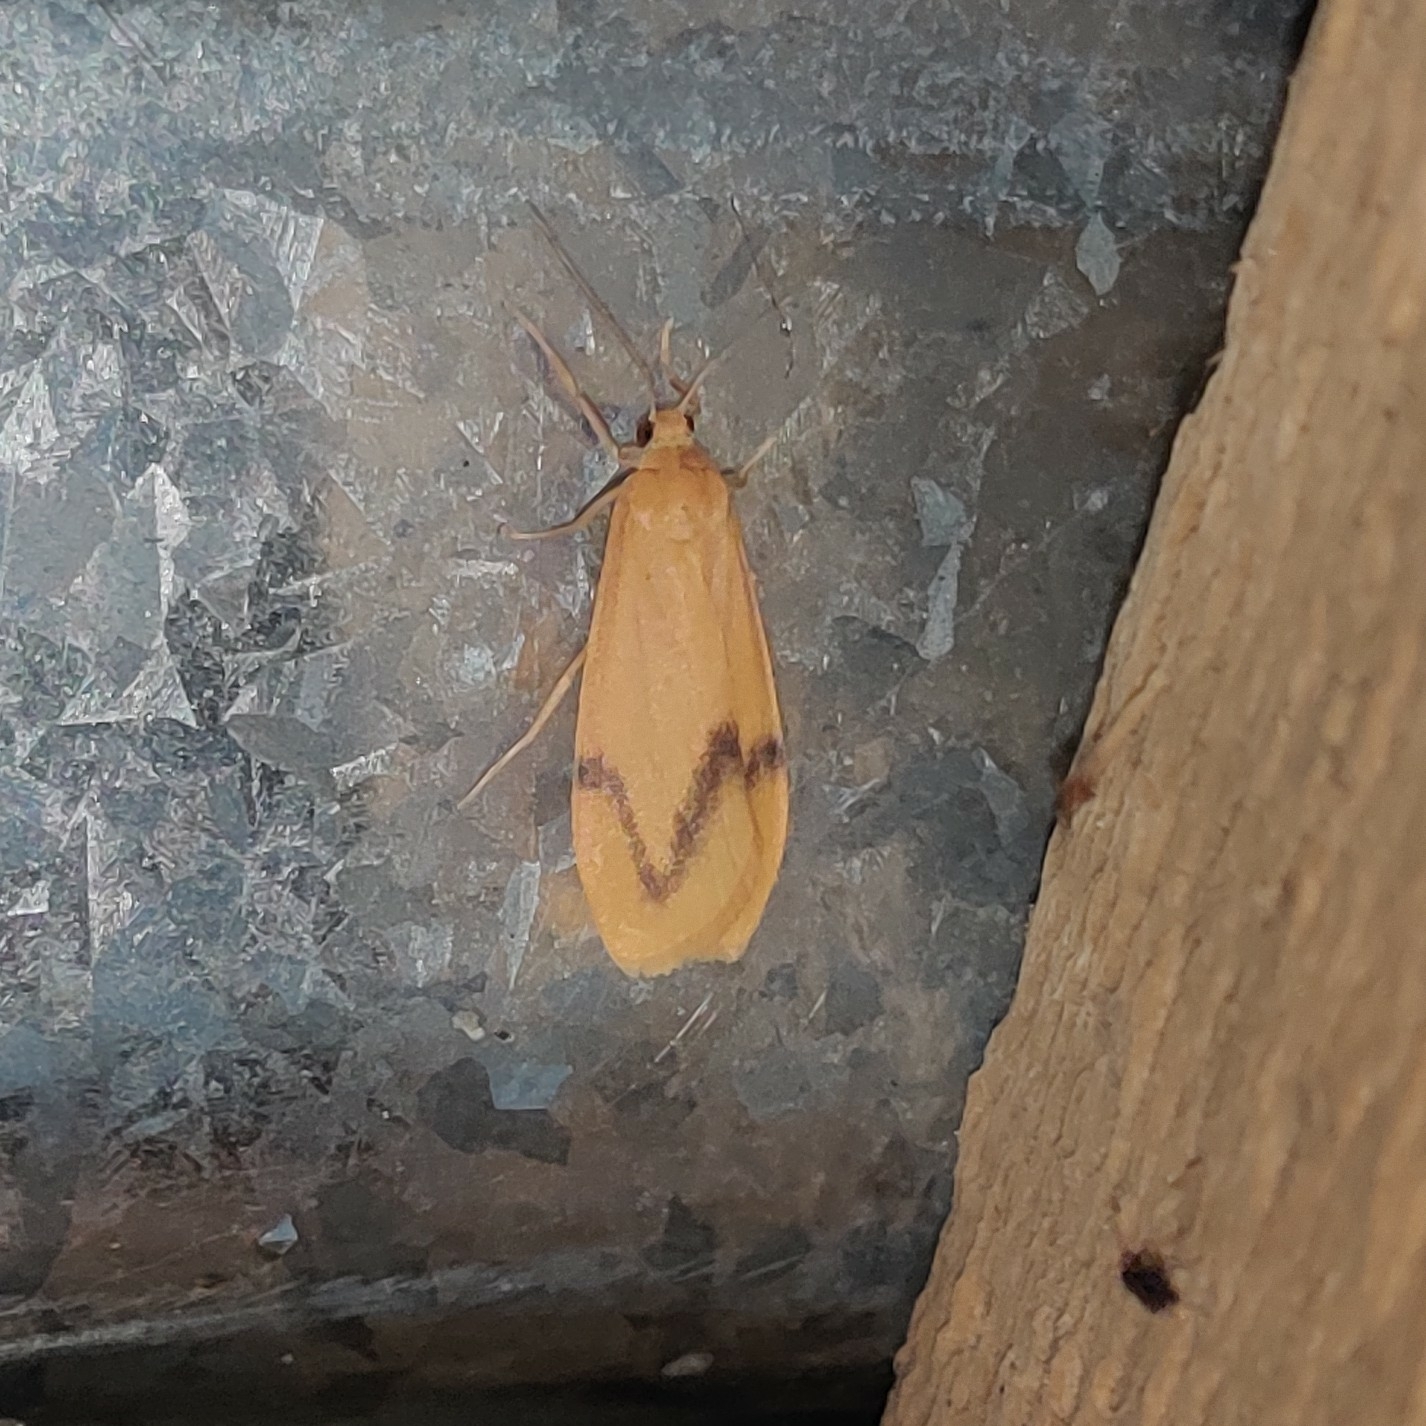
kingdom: Animalia
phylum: Arthropoda
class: Insecta
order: Lepidoptera
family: Erebidae
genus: Dolgoma
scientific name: Dolgoma angulifera
